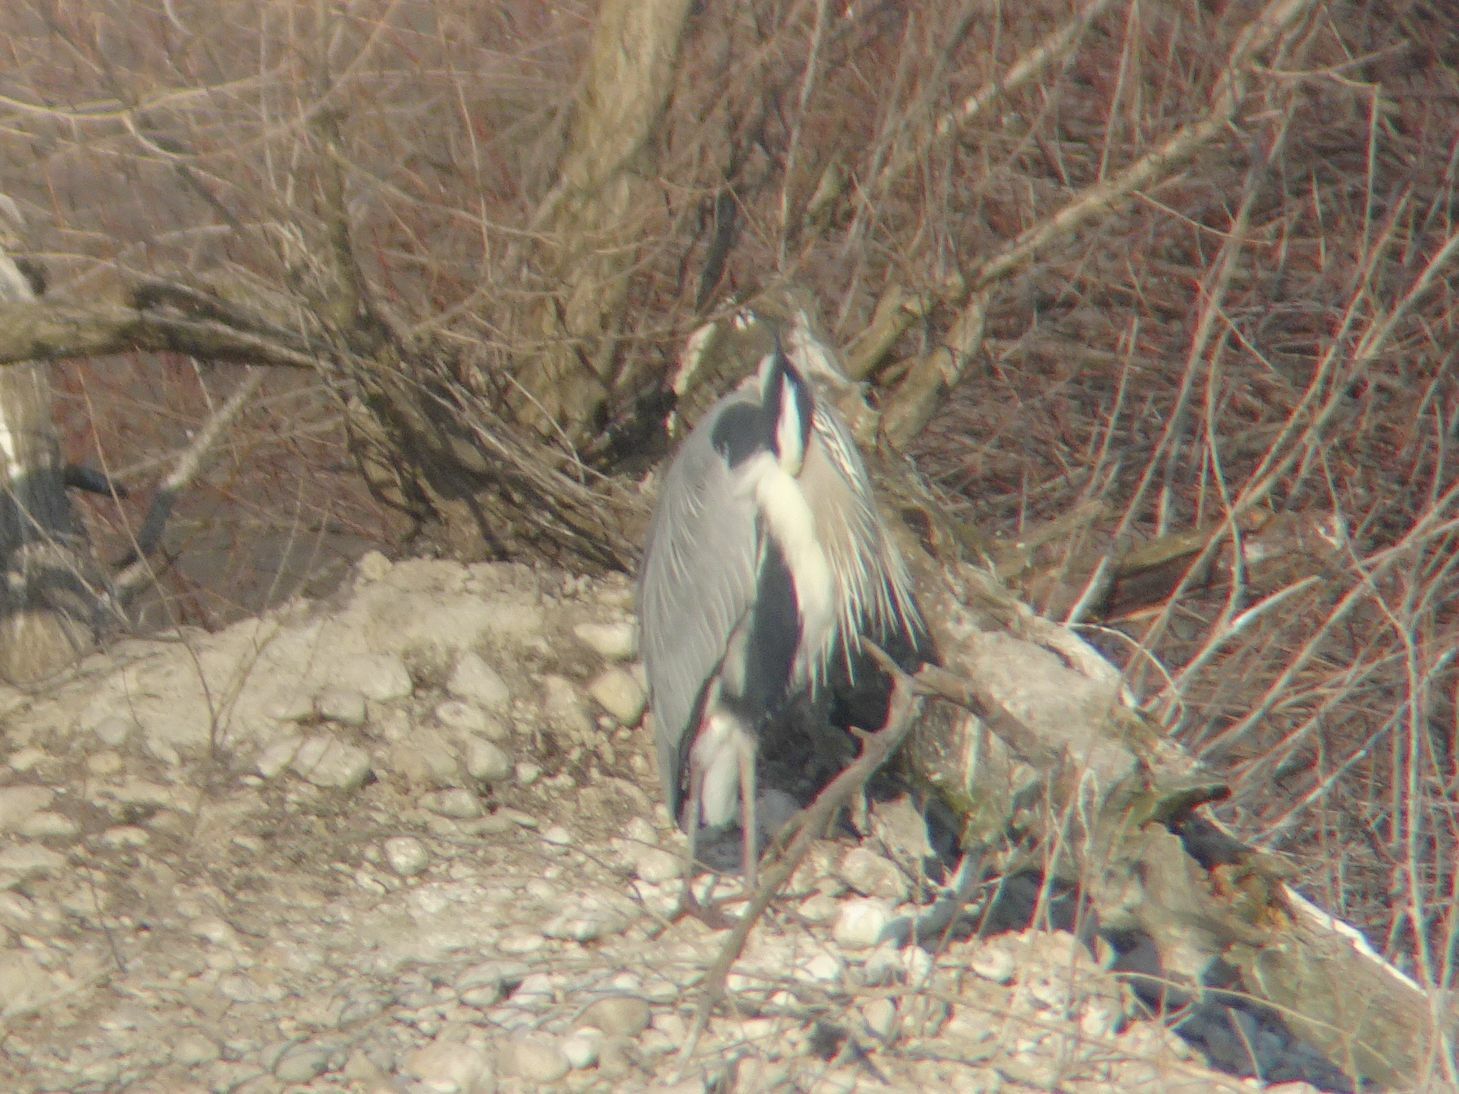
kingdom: Animalia
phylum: Chordata
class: Aves
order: Pelecaniformes
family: Ardeidae
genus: Ardea
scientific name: Ardea cinerea
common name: Grey heron
